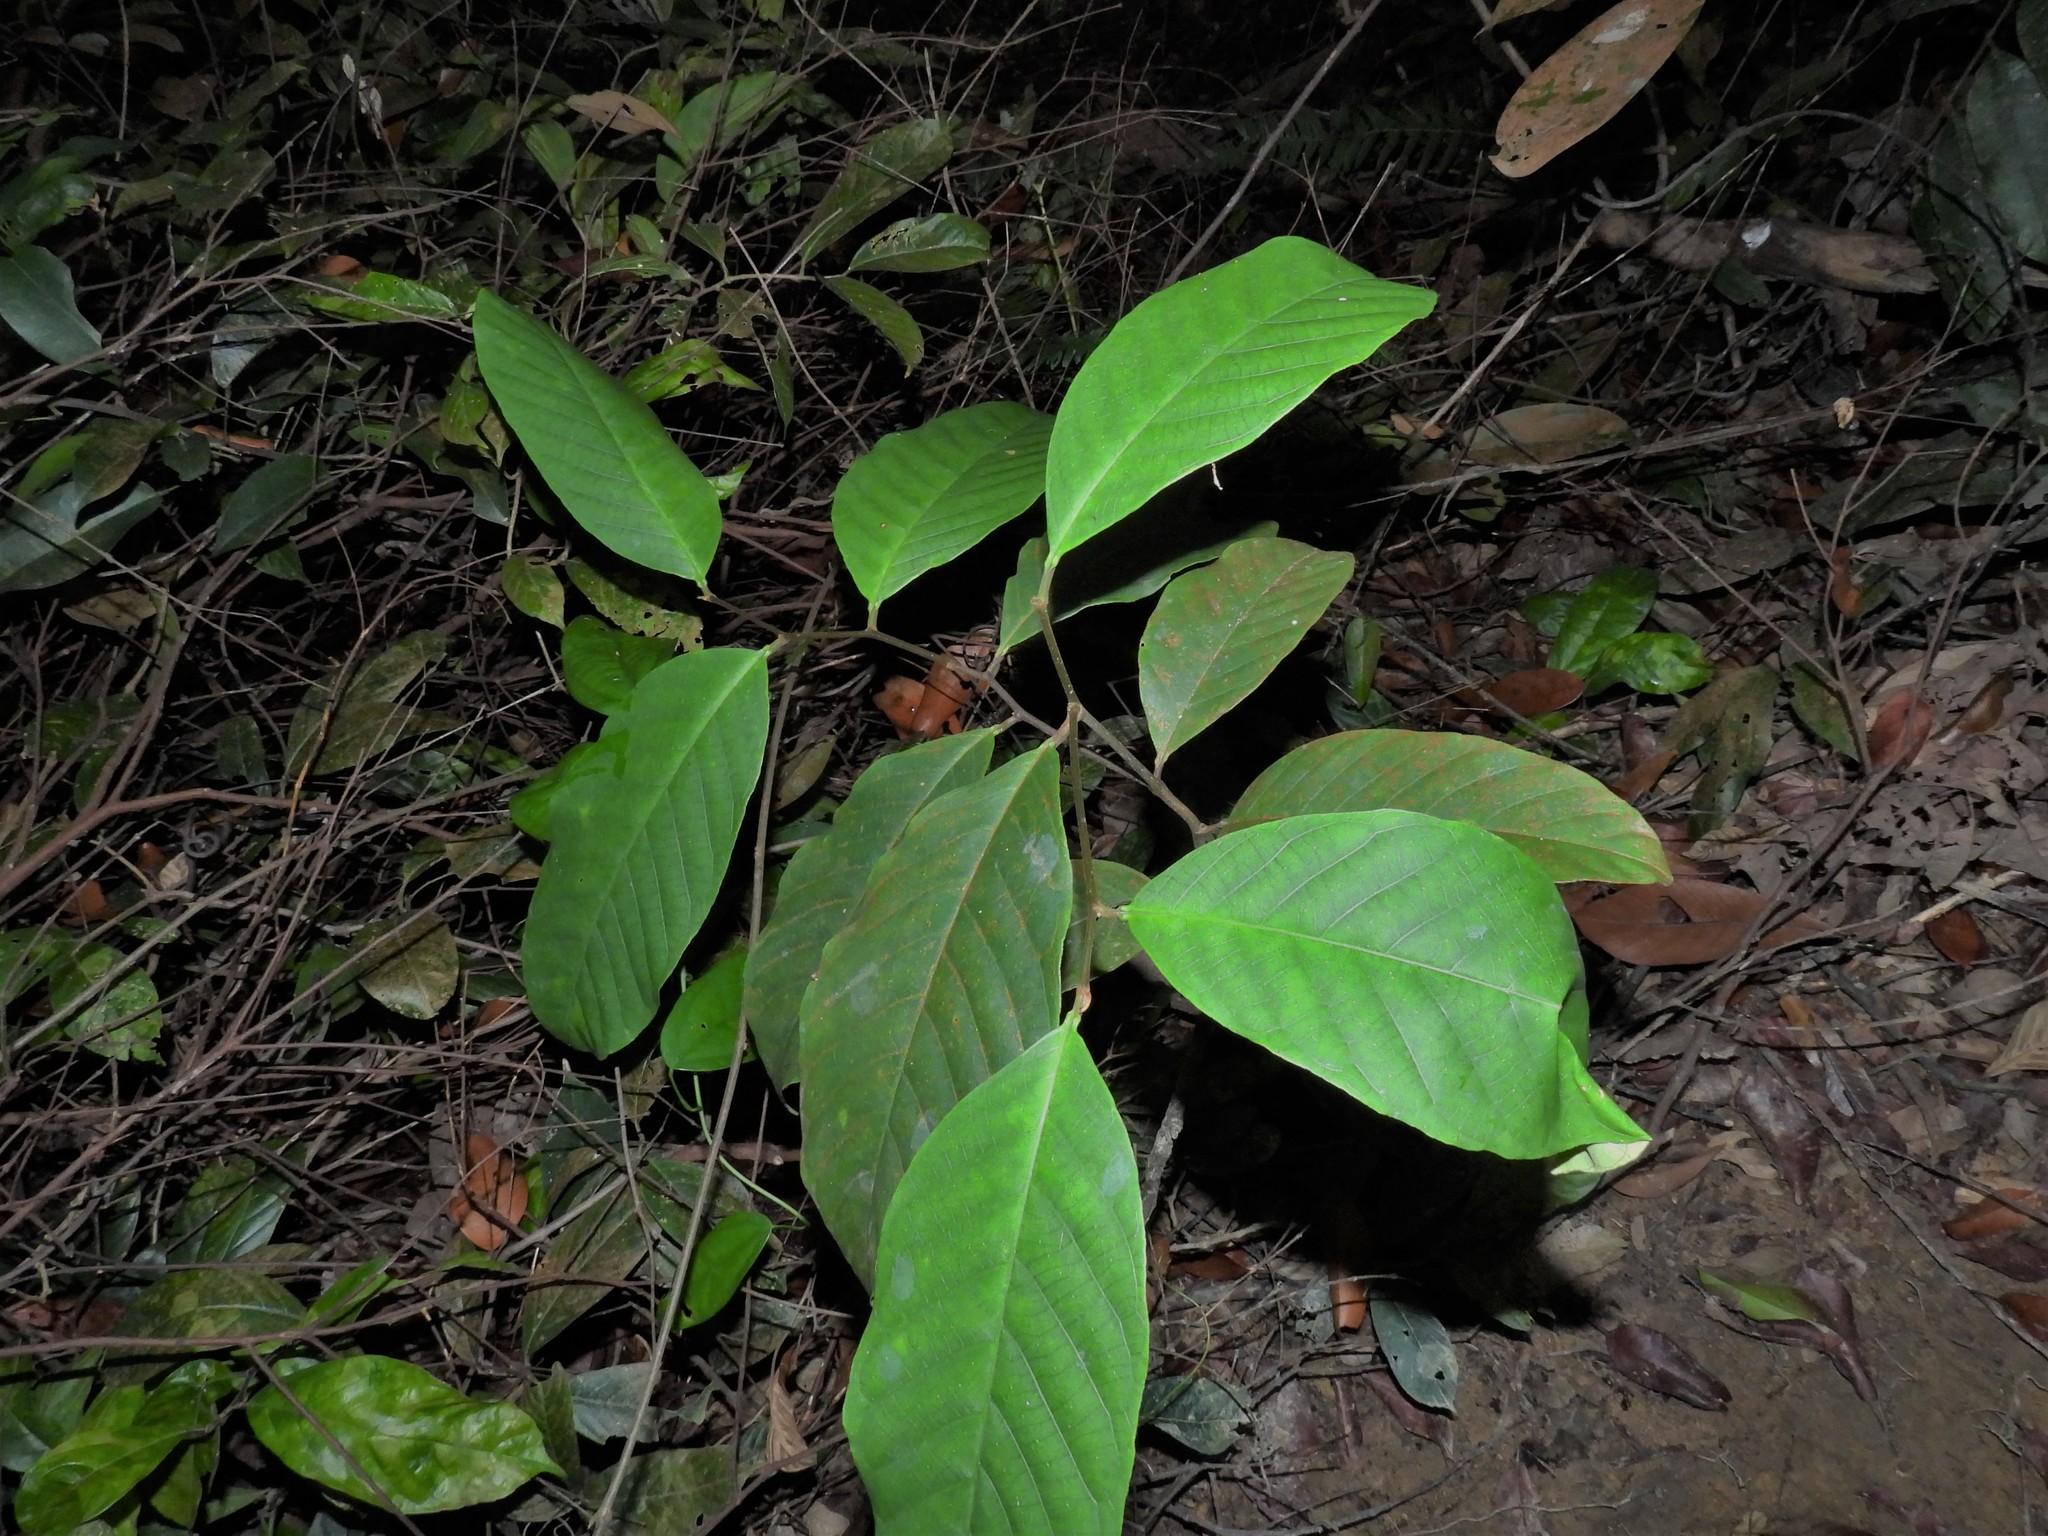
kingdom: Plantae
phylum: Tracheophyta
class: Magnoliopsida
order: Rosales
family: Rosaceae
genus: Prunus
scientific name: Prunus polystachya
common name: Bat laurel
